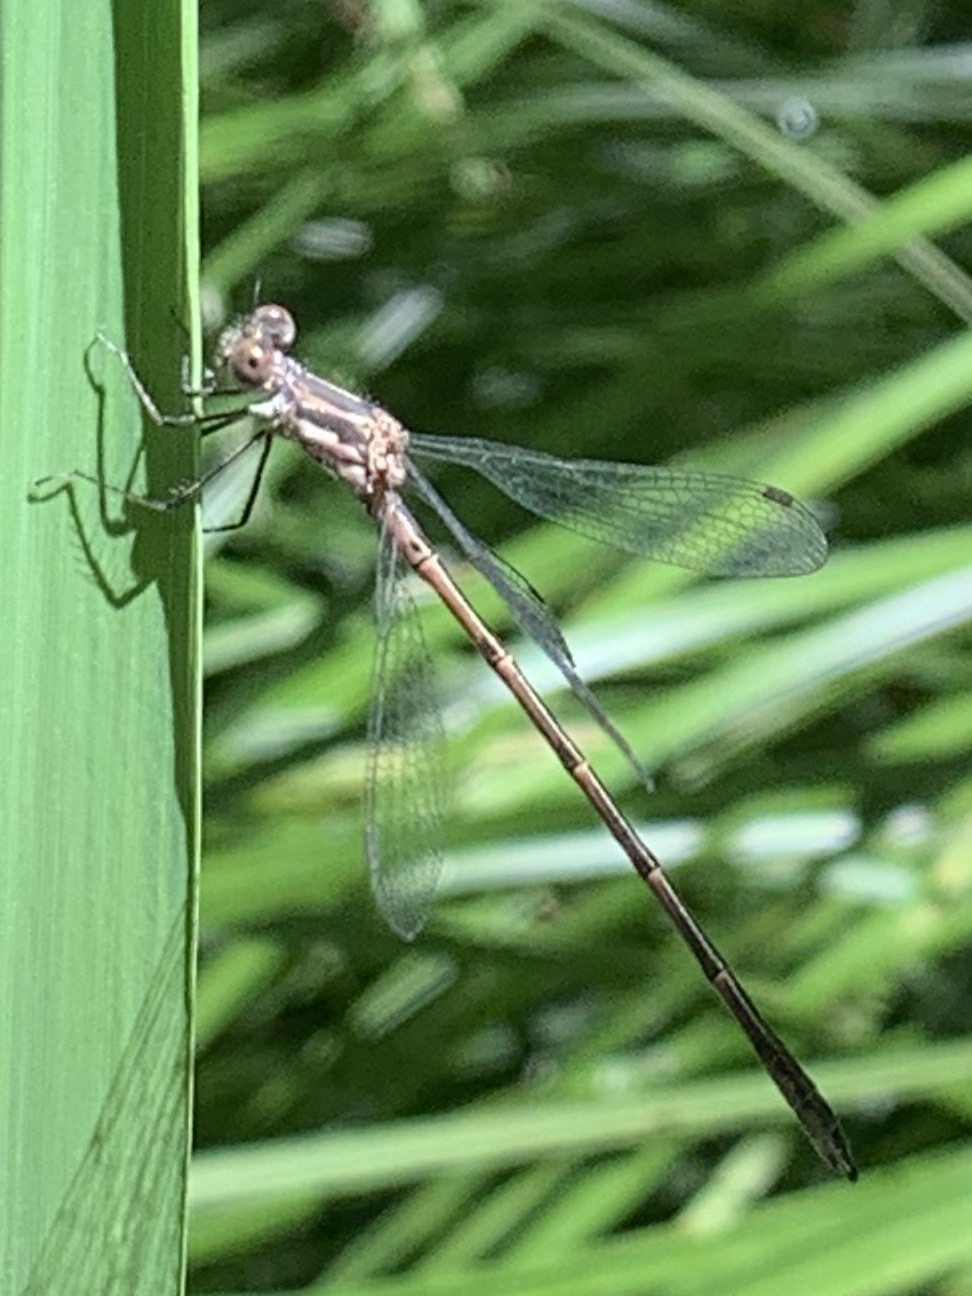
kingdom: Animalia
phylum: Arthropoda
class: Insecta
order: Odonata
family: Lestidae
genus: Lestes
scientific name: Lestes congener
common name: Spotted spreadwing
